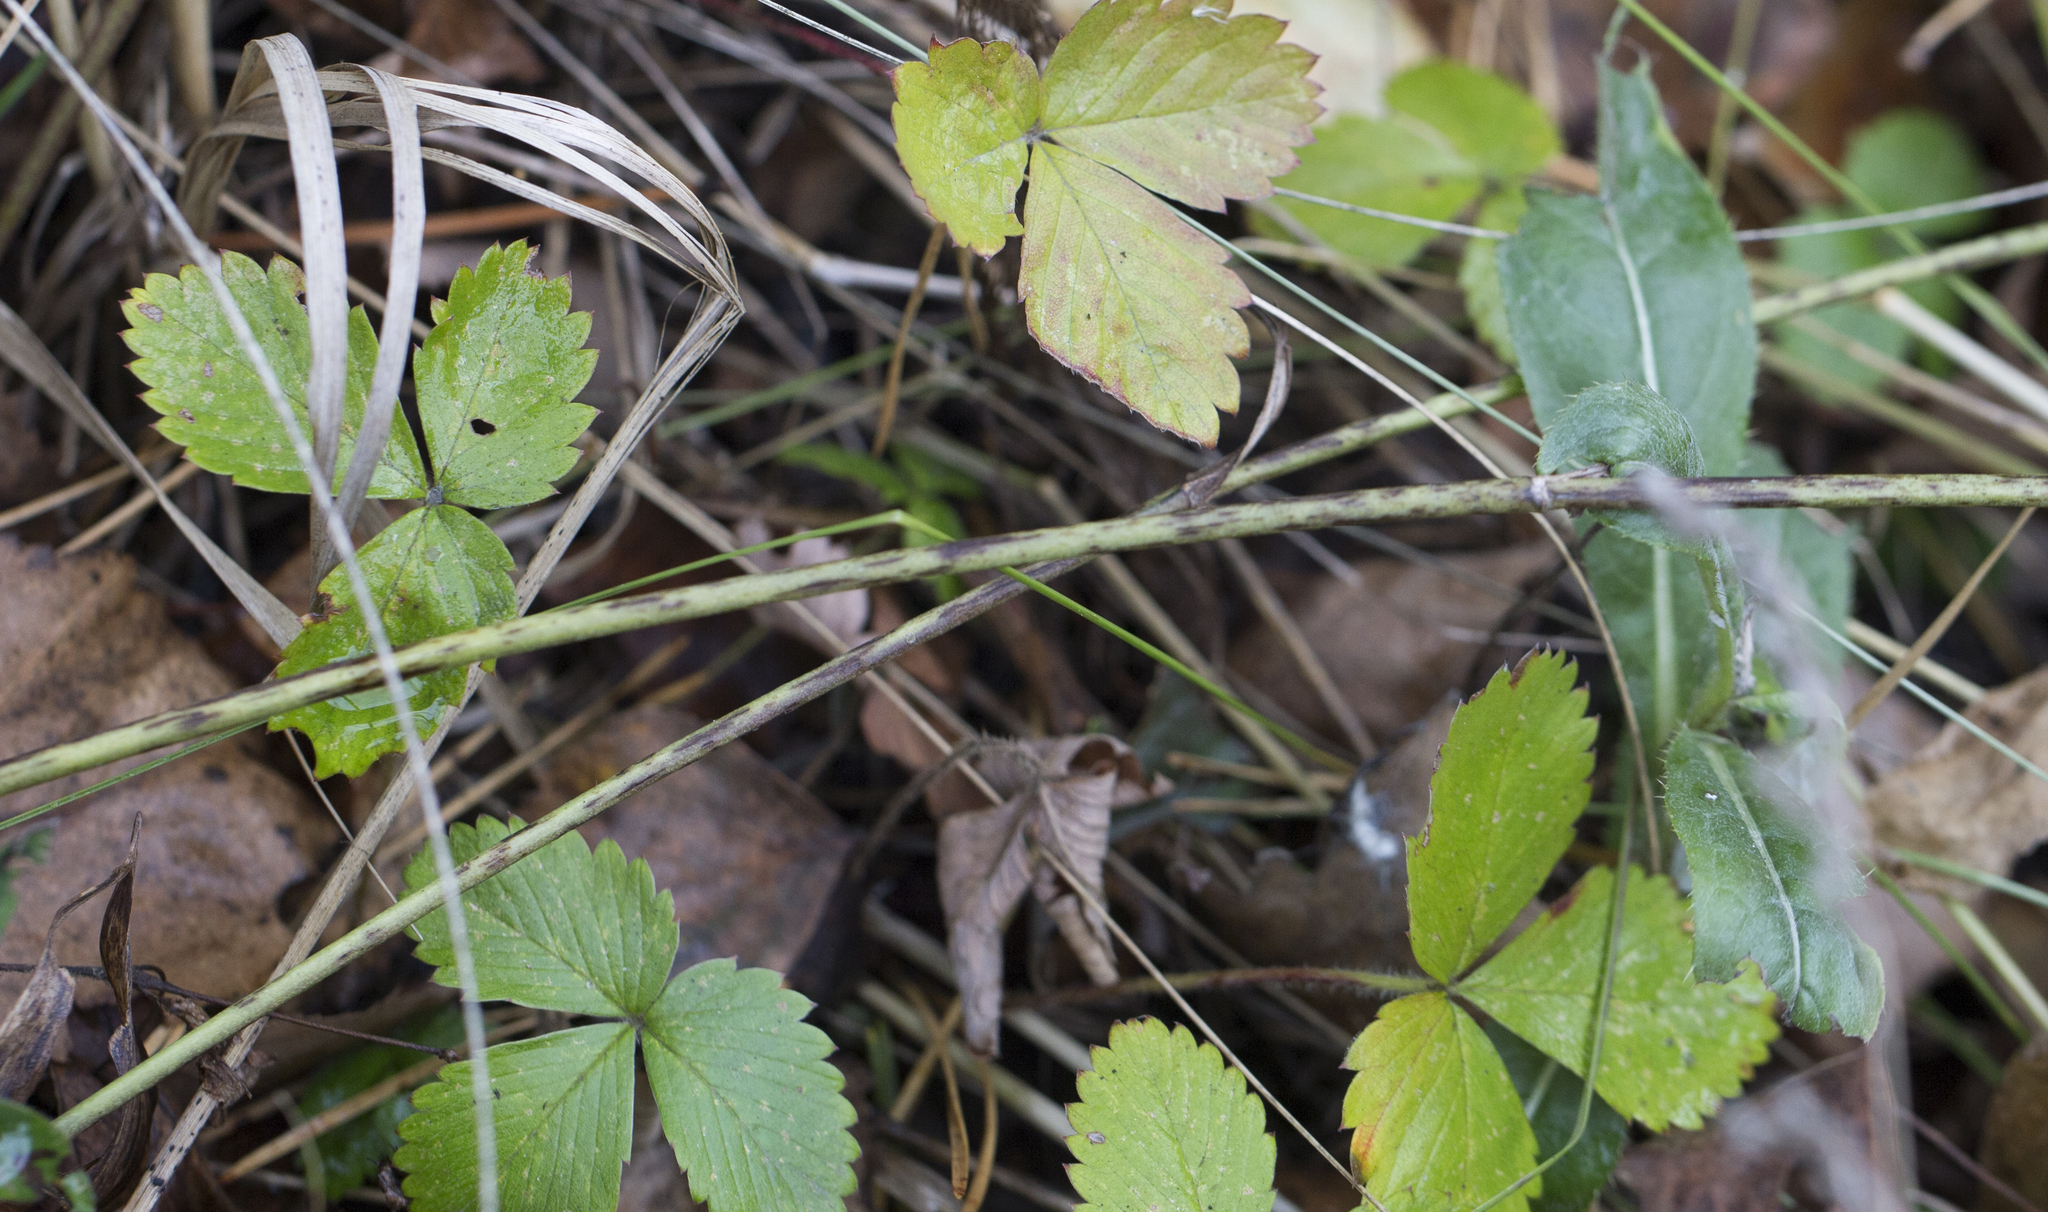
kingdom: Plantae
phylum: Tracheophyta
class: Magnoliopsida
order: Rosales
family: Rosaceae
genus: Fragaria
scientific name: Fragaria vesca
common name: Wild strawberry
